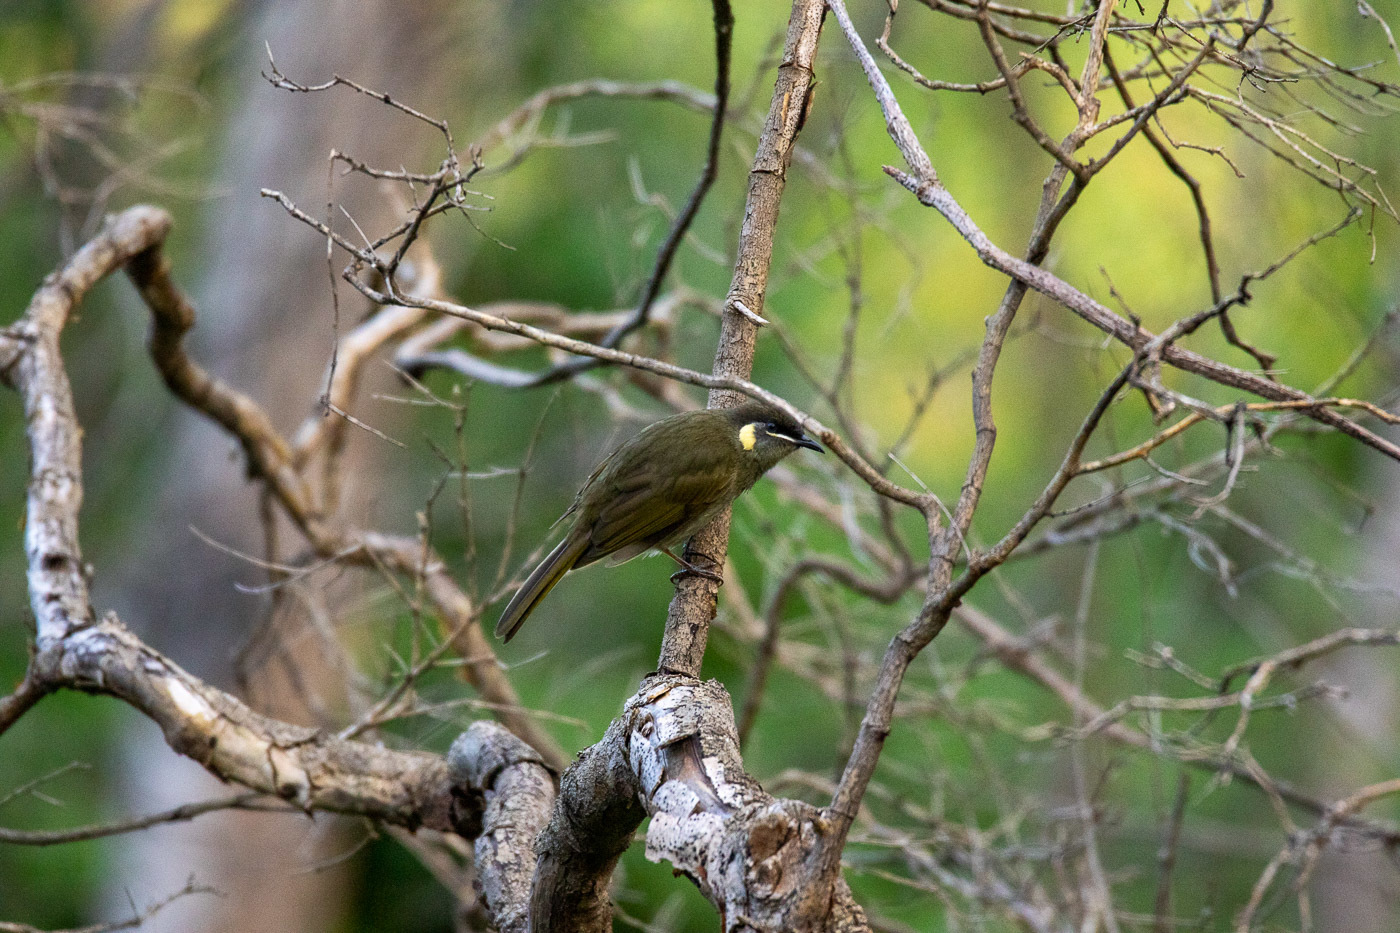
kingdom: Animalia
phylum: Chordata
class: Aves
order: Passeriformes
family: Meliphagidae
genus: Meliphaga
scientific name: Meliphaga lewinii
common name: Lewin's honeyeater
